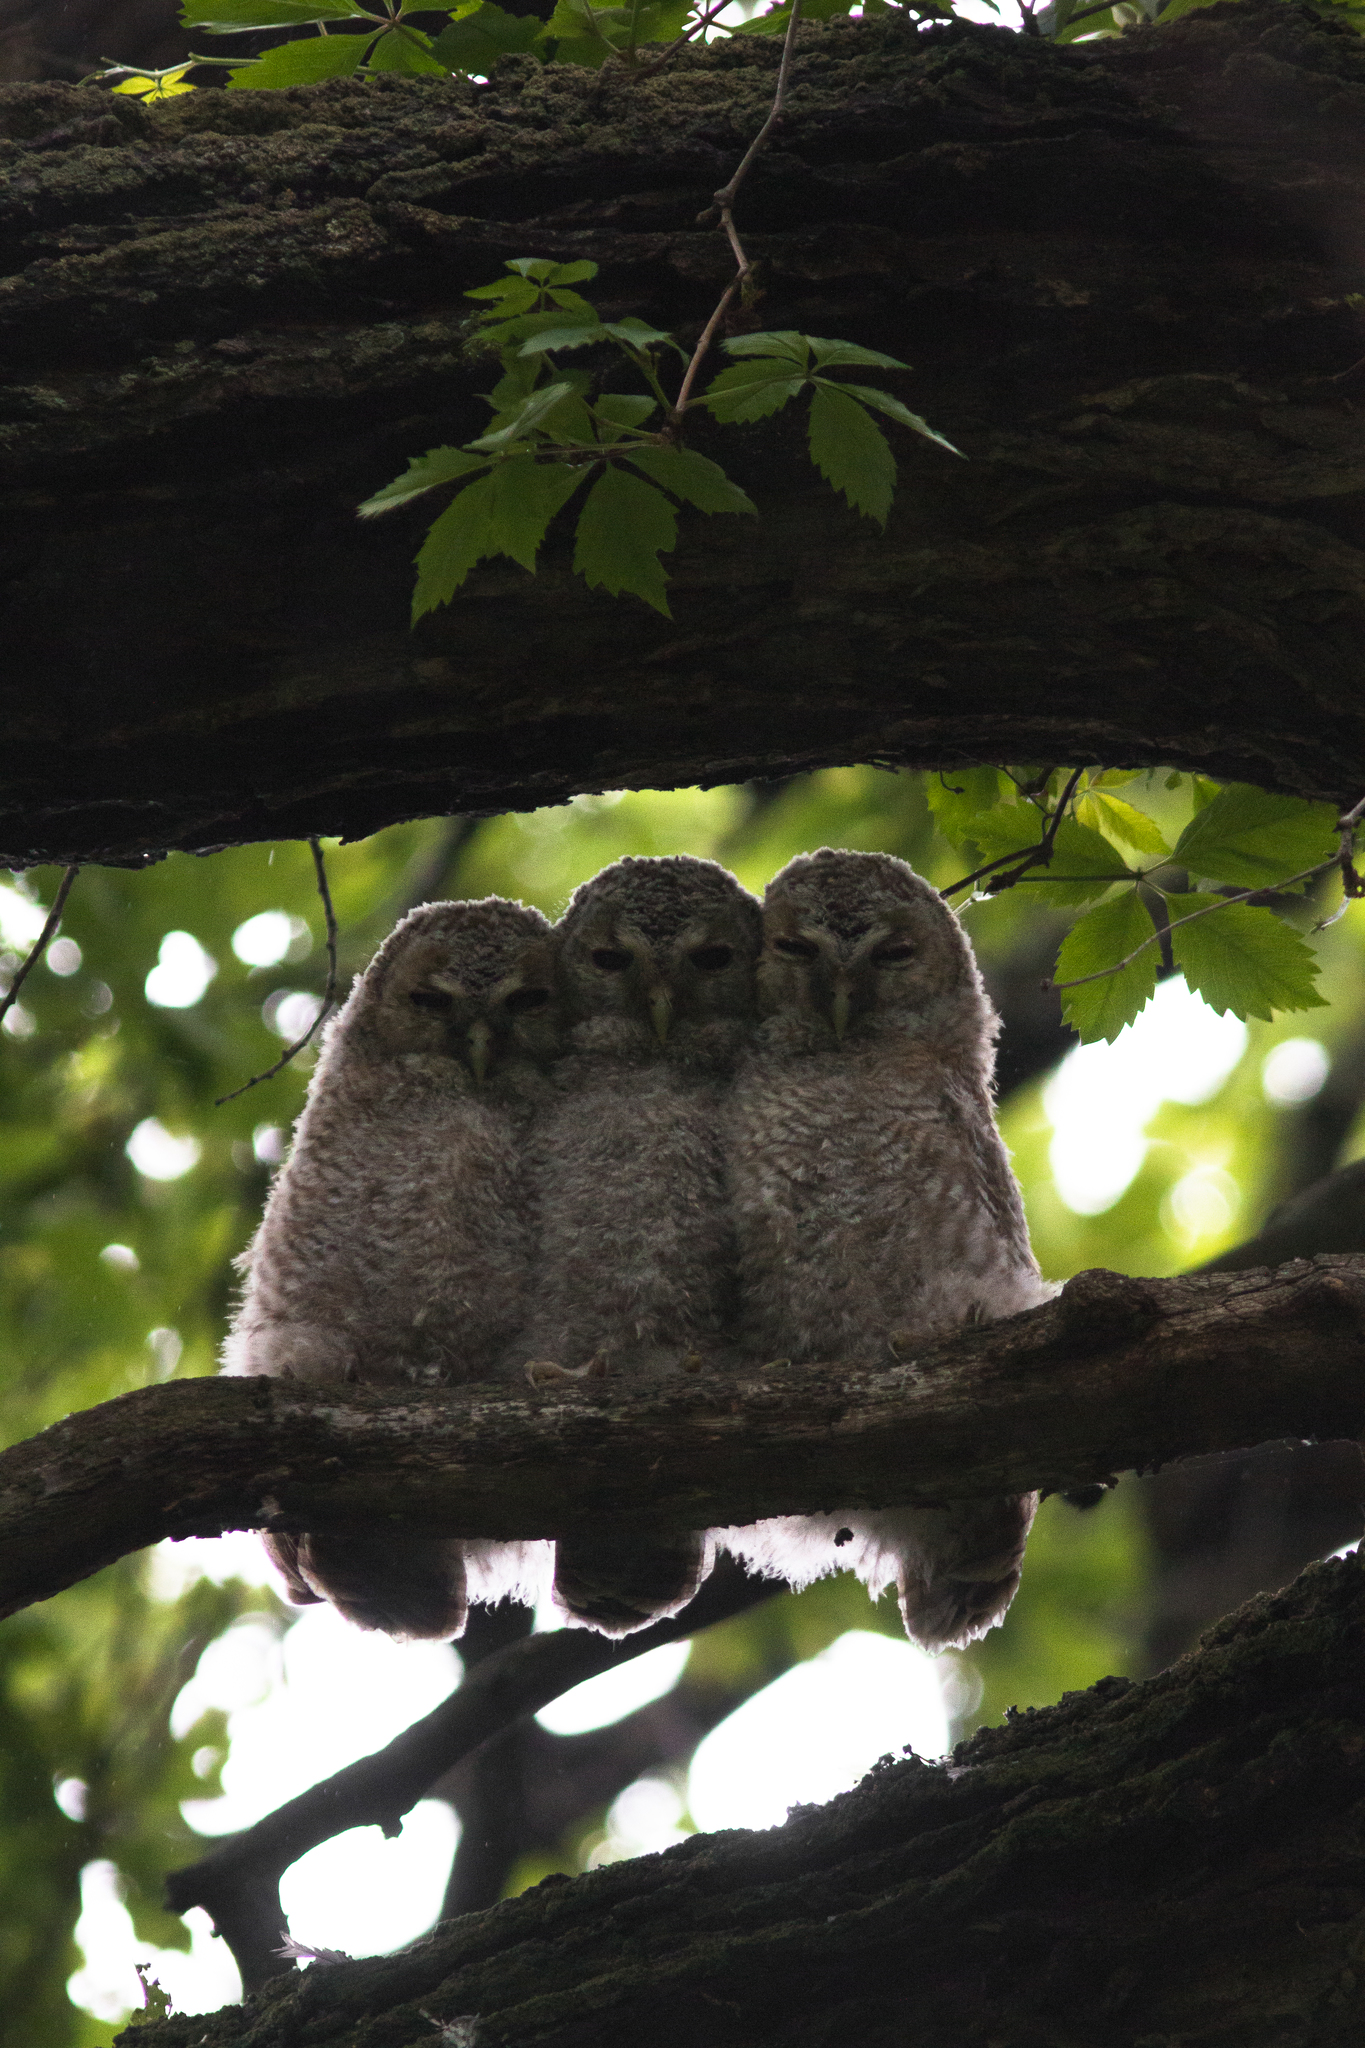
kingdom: Animalia
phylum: Chordata
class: Aves
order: Strigiformes
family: Strigidae
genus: Strix
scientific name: Strix aluco
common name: Tawny owl
